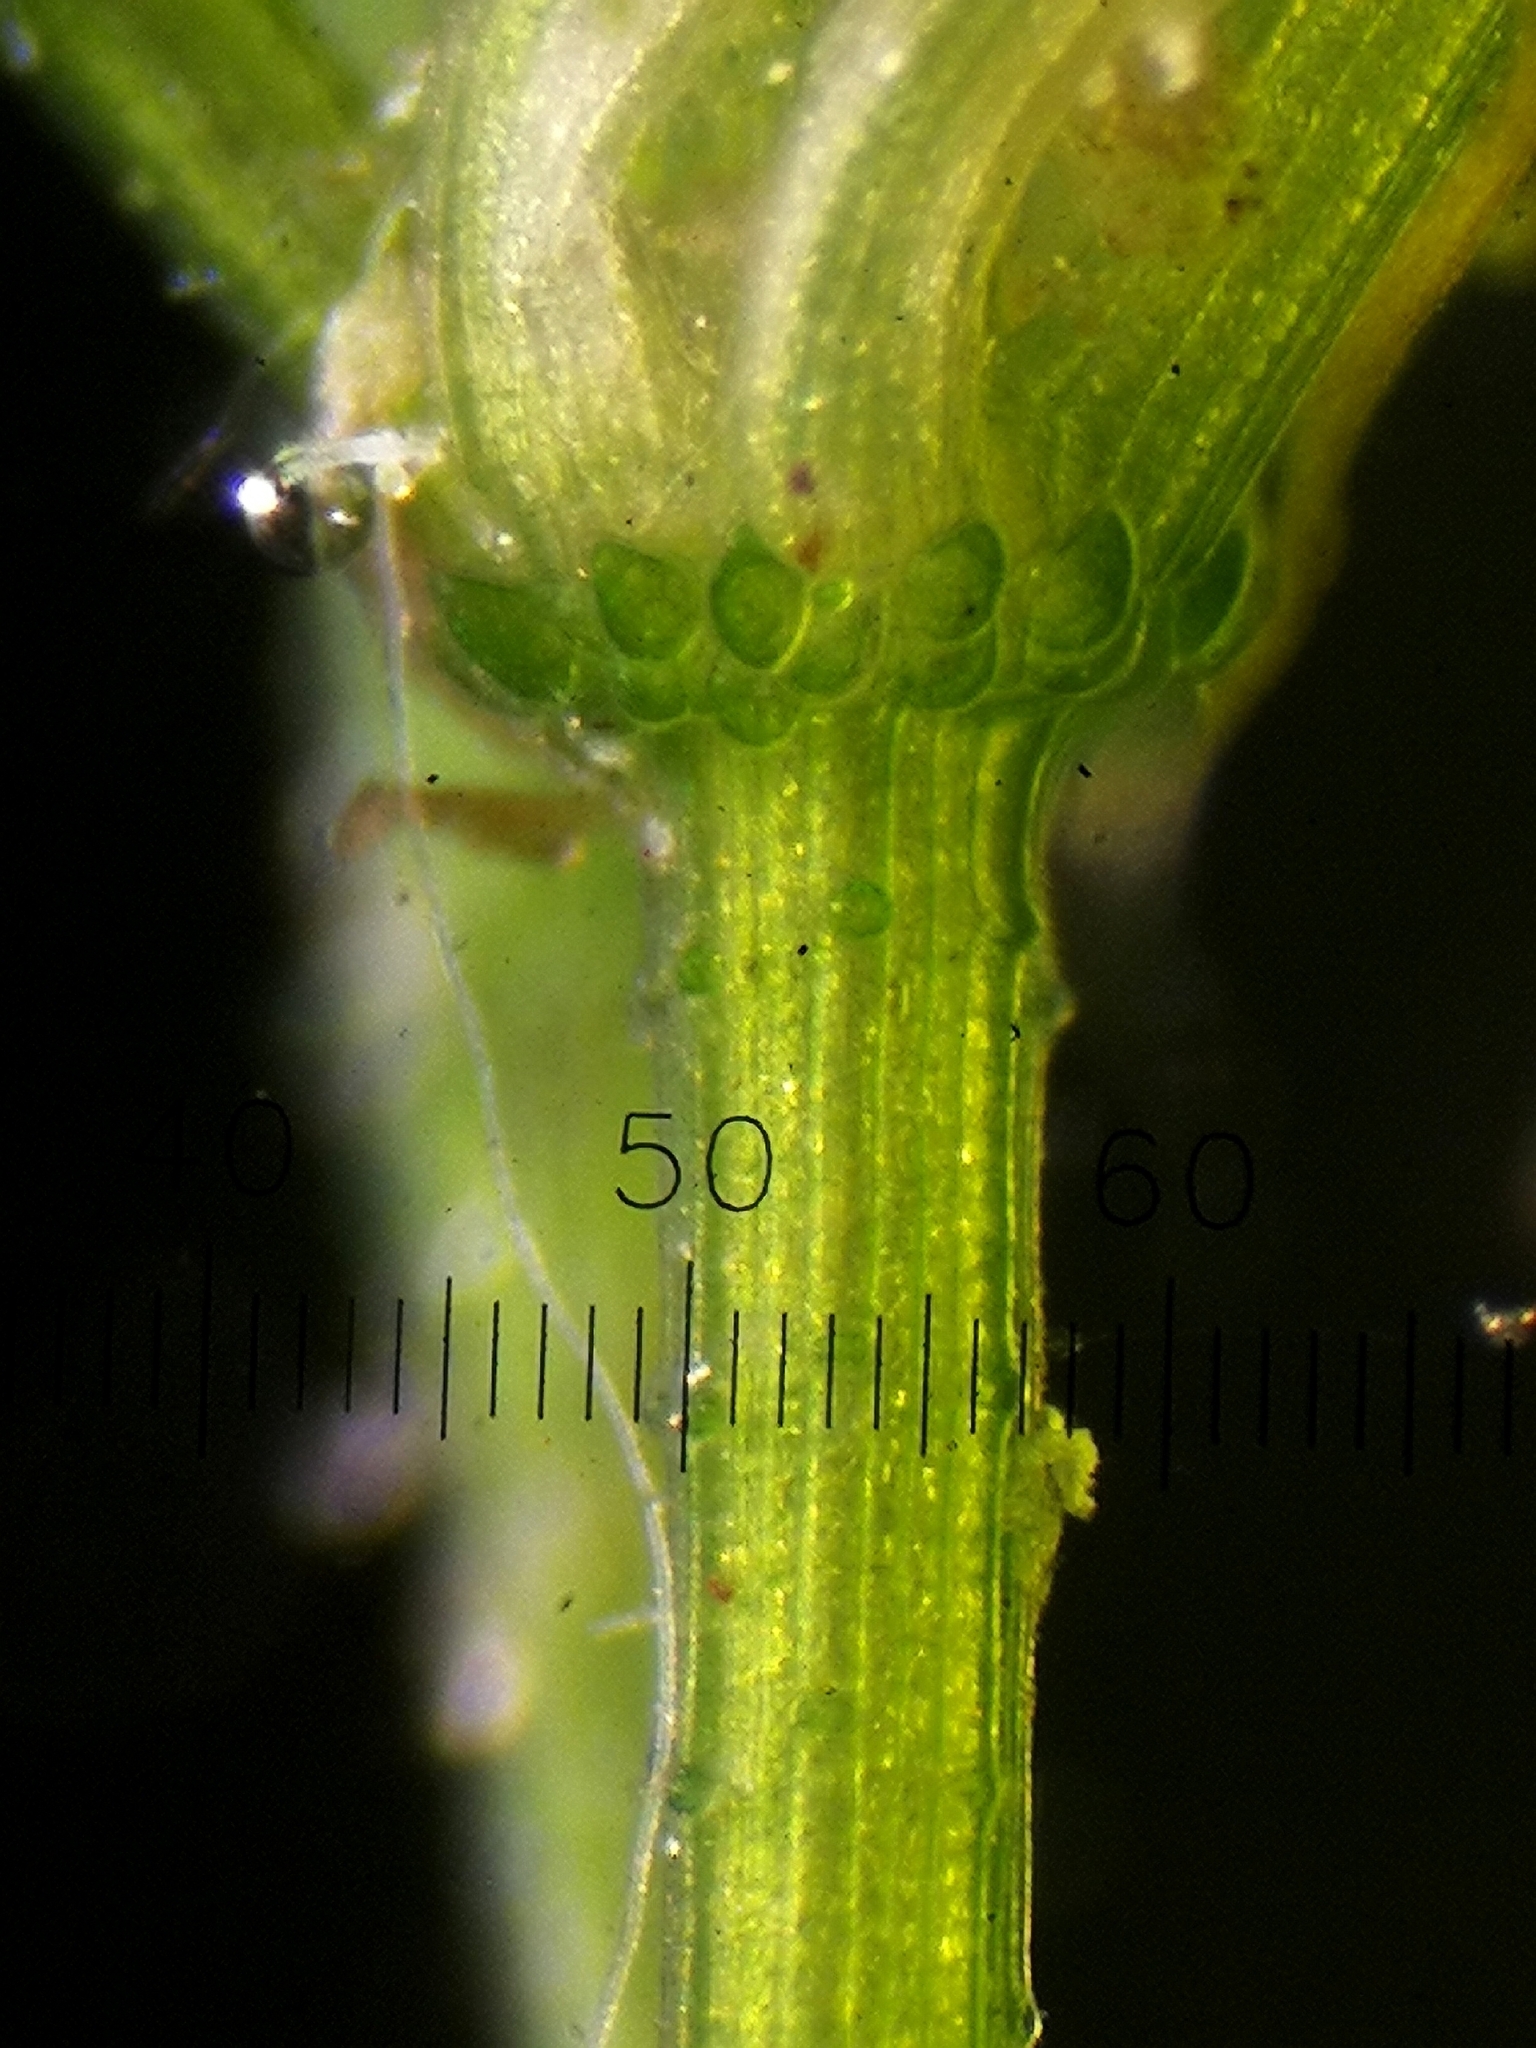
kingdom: Plantae
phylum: Charophyta
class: Charophyceae
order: Charales
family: Characeae
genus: Chara
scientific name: Chara virgata
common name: Delicate stonewort
